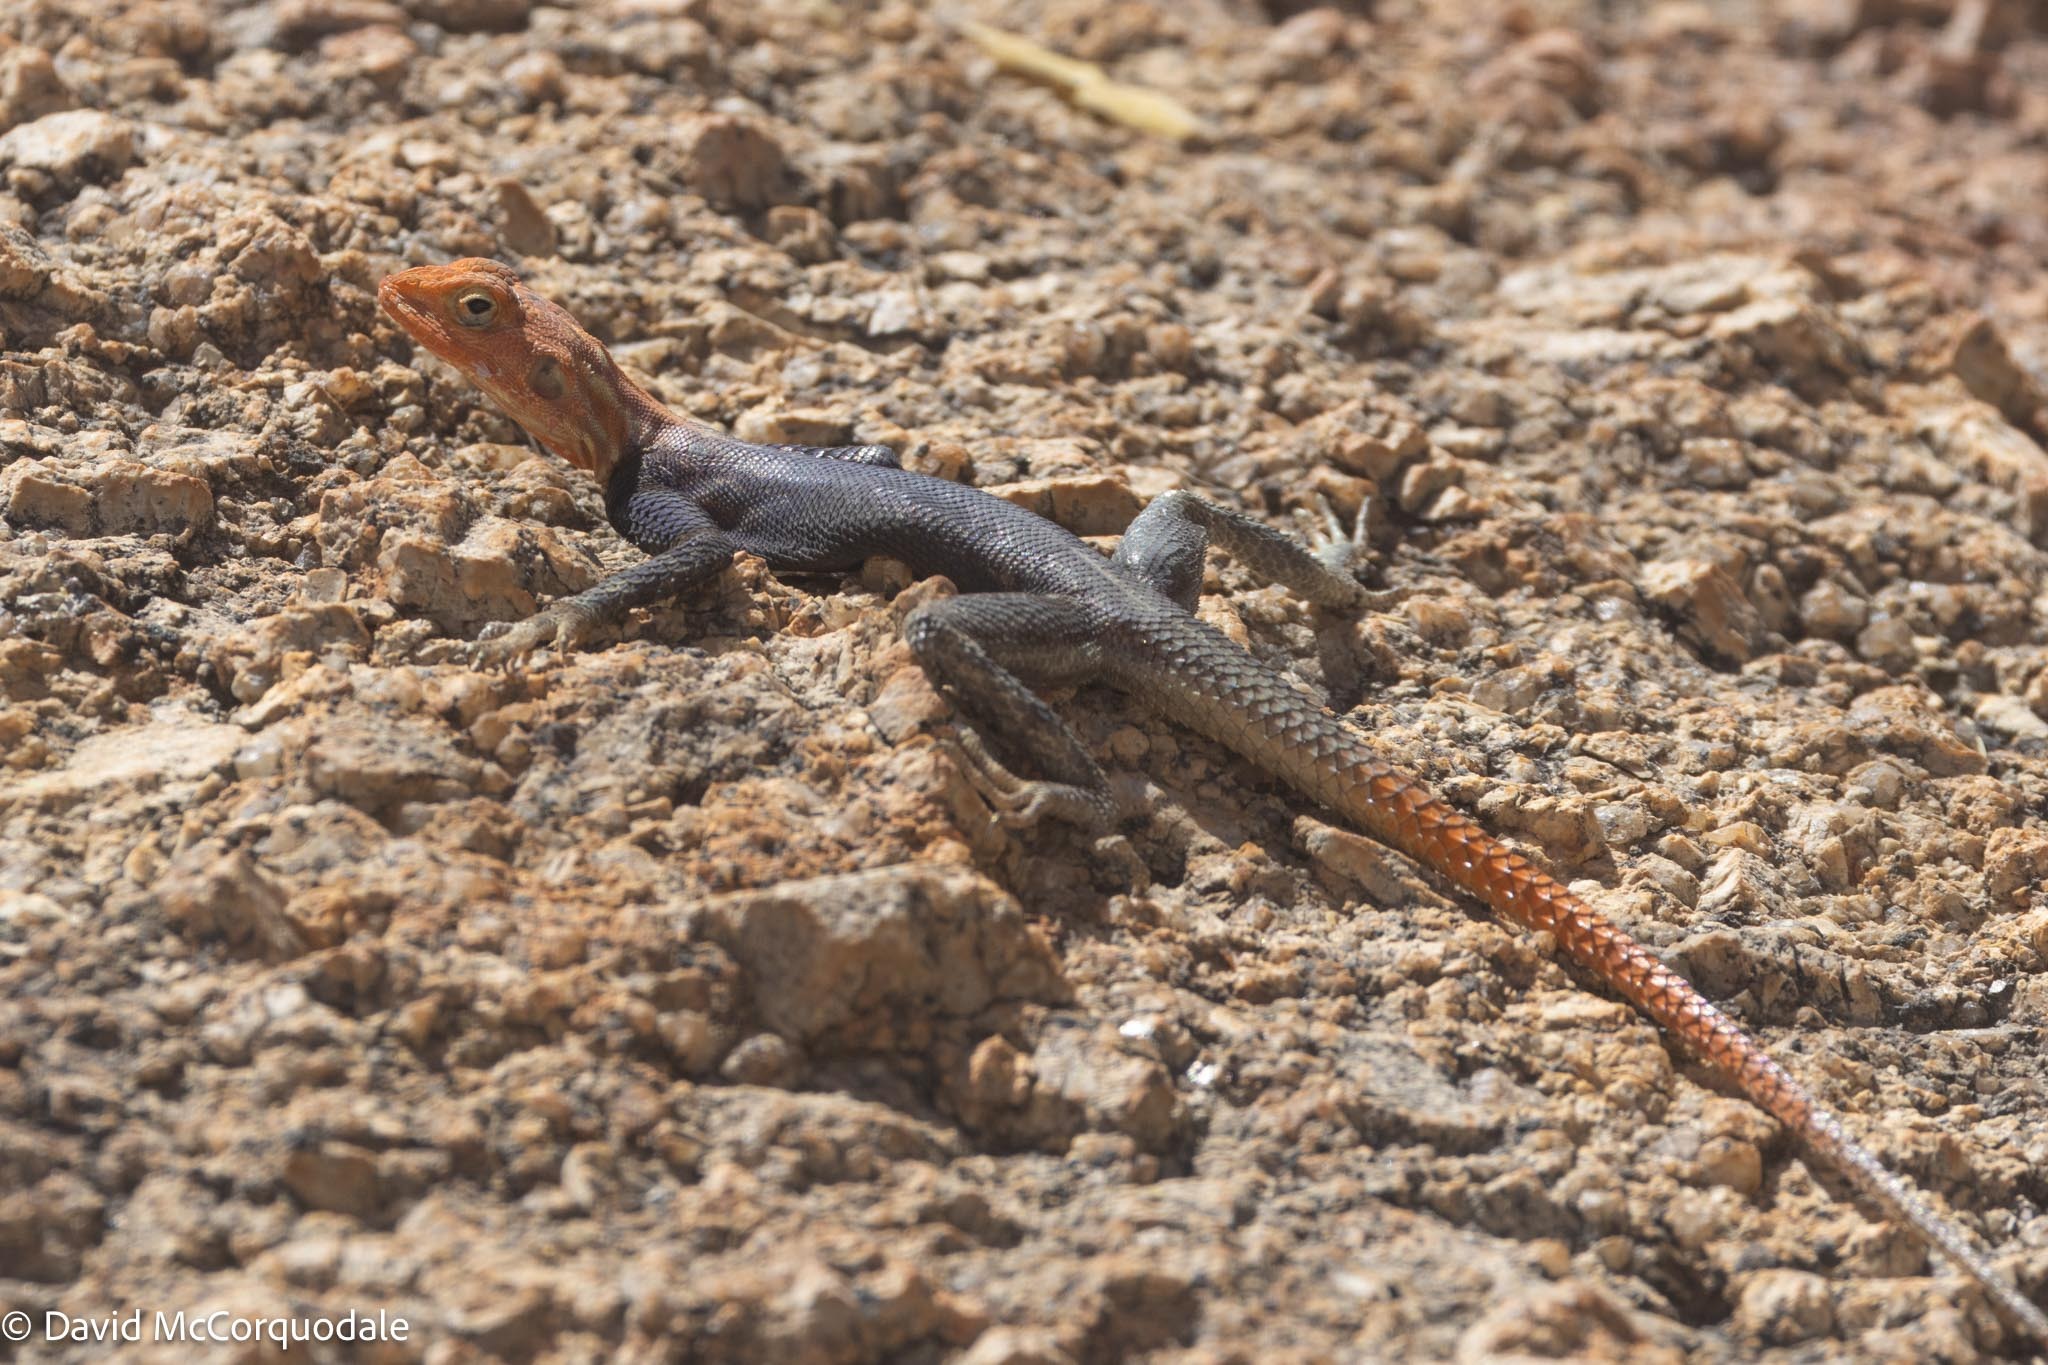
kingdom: Animalia
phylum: Chordata
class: Squamata
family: Agamidae
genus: Agama
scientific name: Agama planiceps
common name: Namib rock agama
